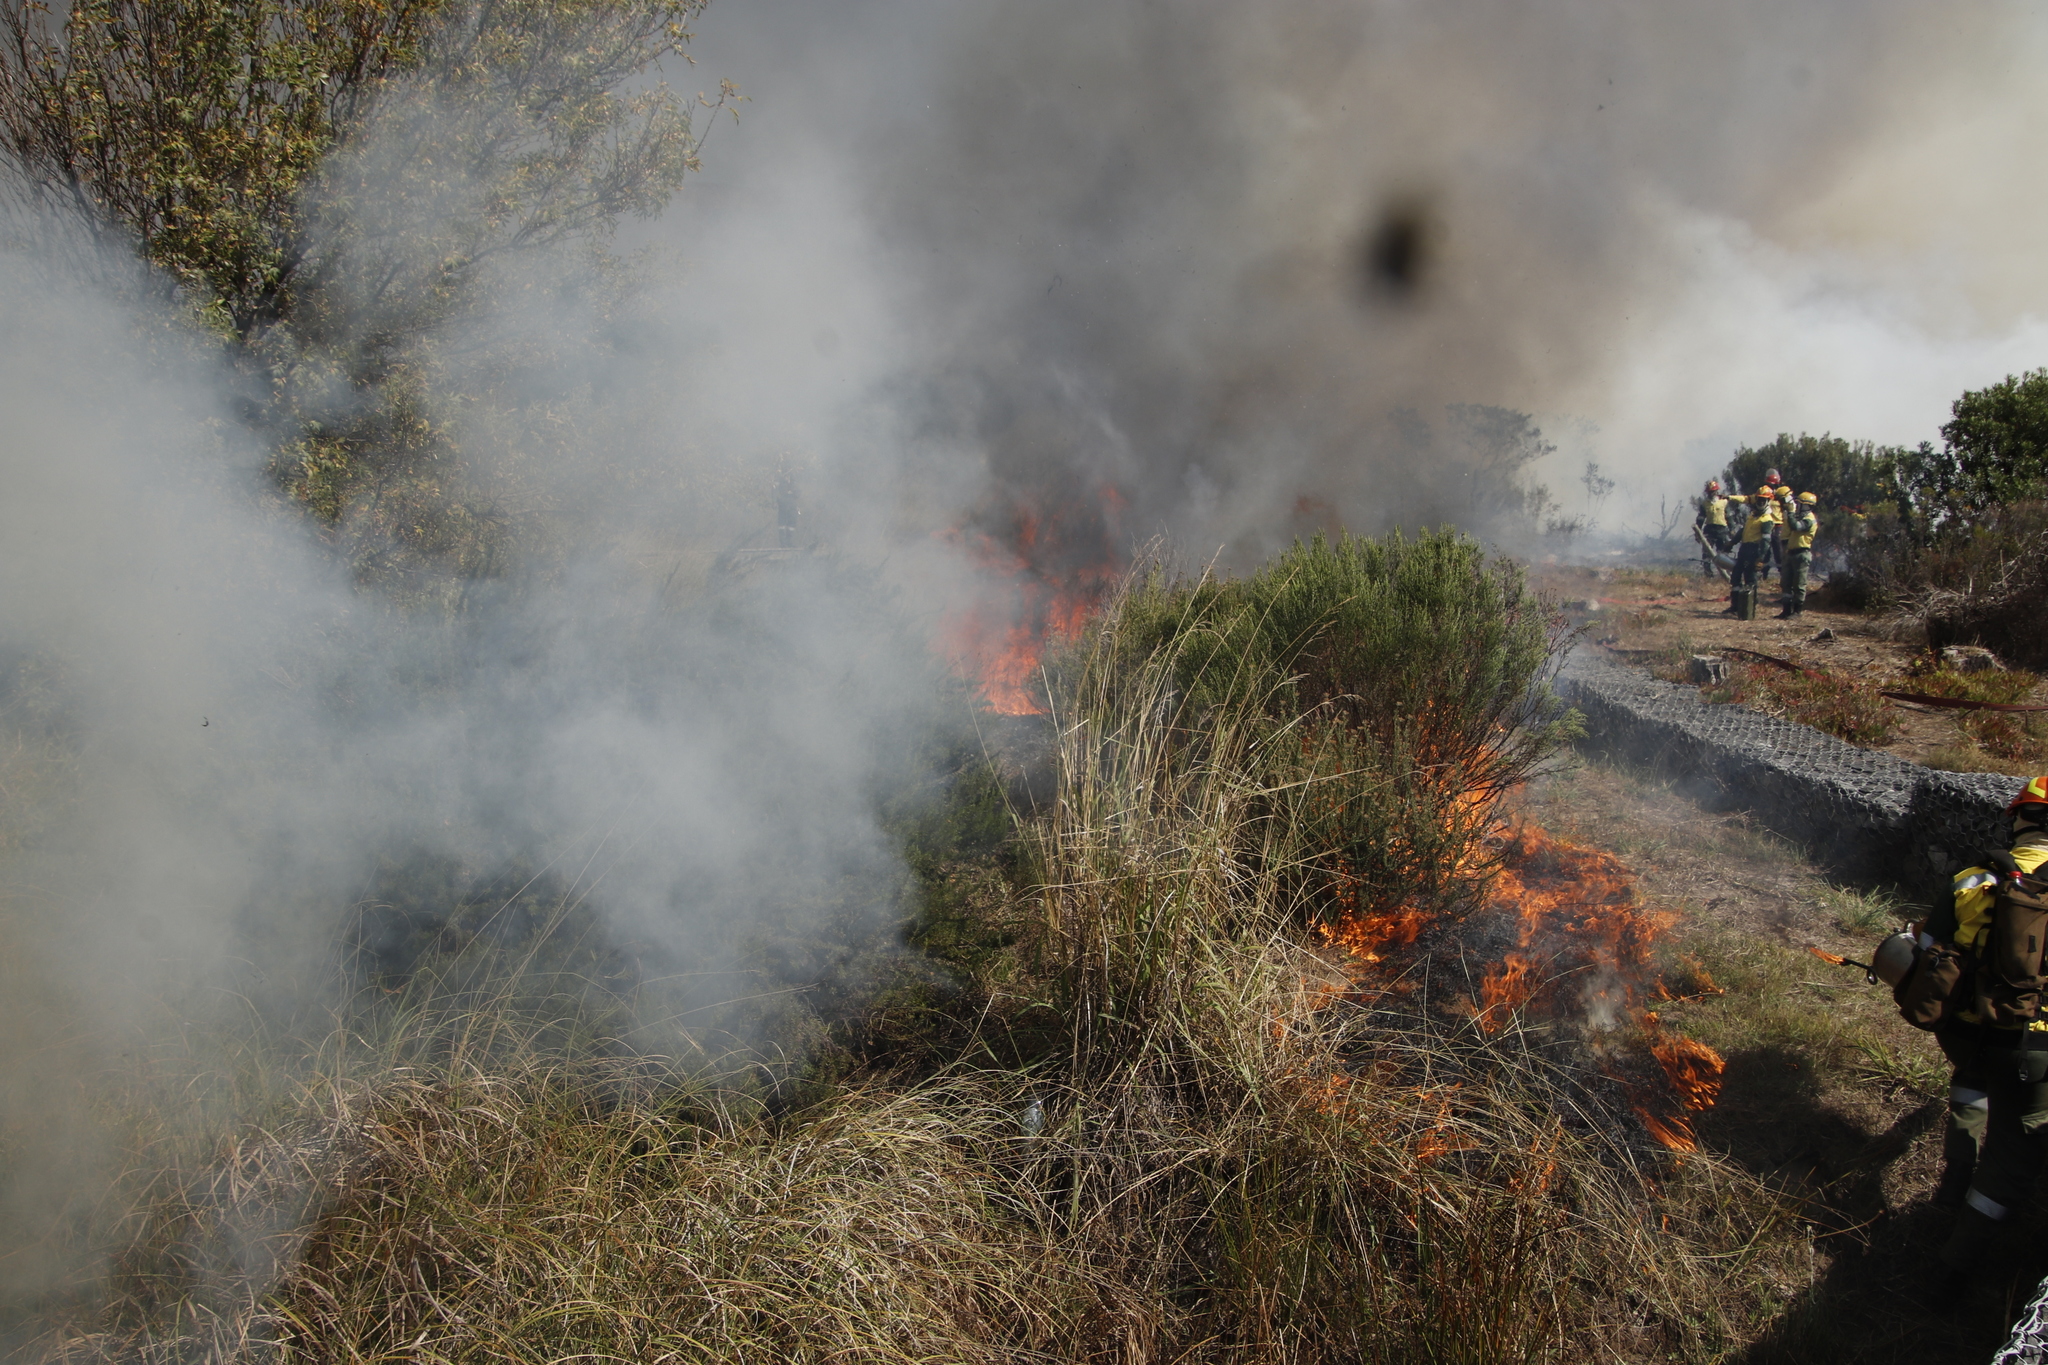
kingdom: Plantae
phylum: Tracheophyta
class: Liliopsida
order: Poales
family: Poaceae
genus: Paspalum
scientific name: Paspalum urvillei
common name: Vasey's grass
